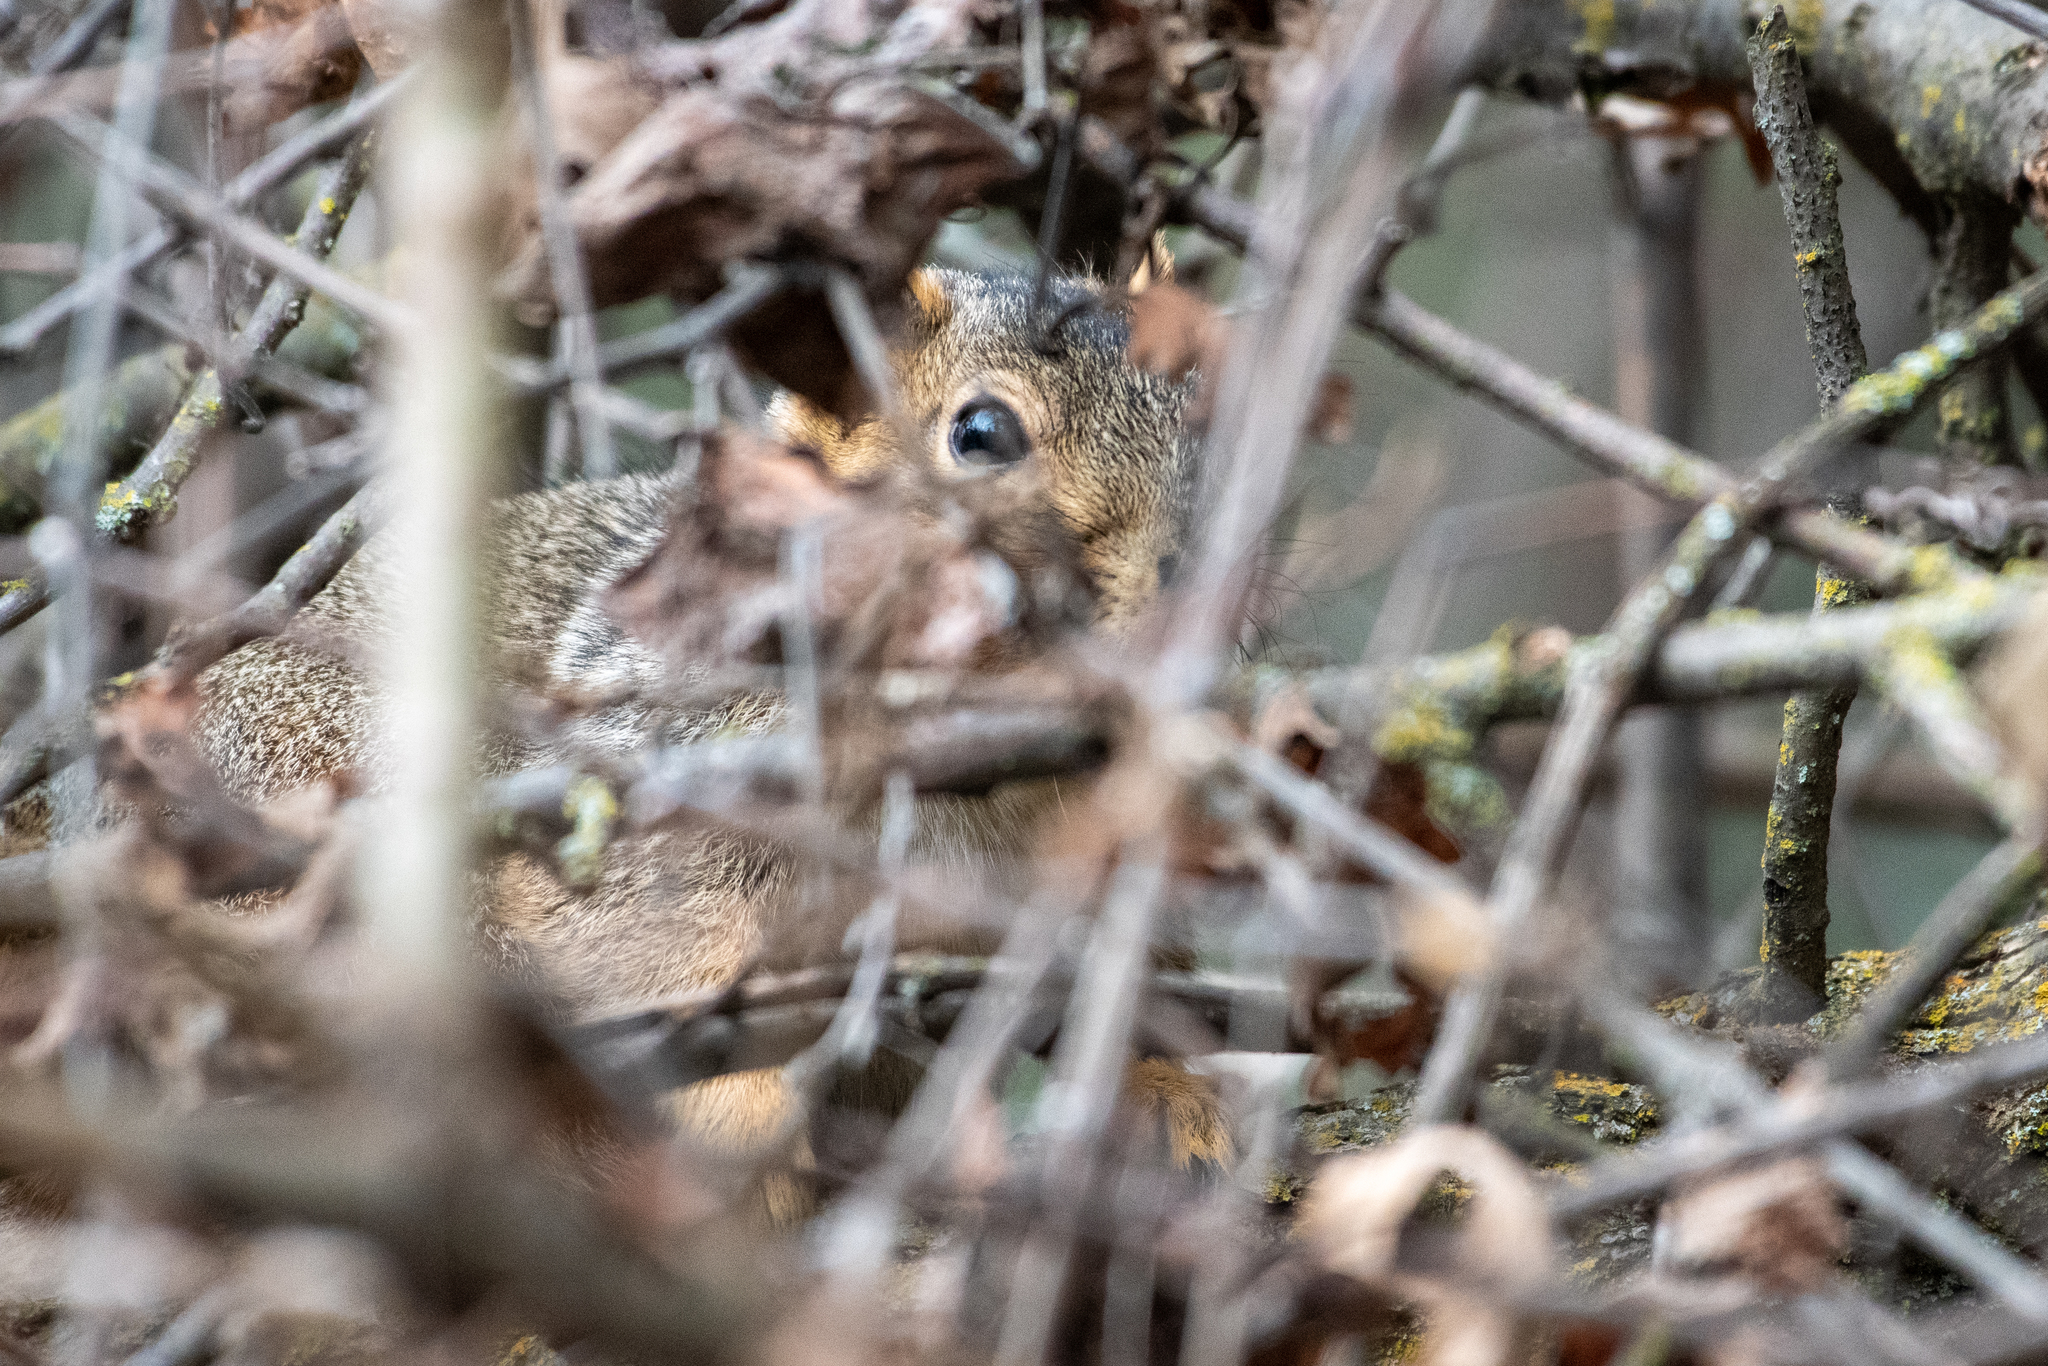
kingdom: Animalia
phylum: Chordata
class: Mammalia
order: Rodentia
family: Sciuridae
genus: Sciurus
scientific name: Sciurus niger
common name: Fox squirrel
